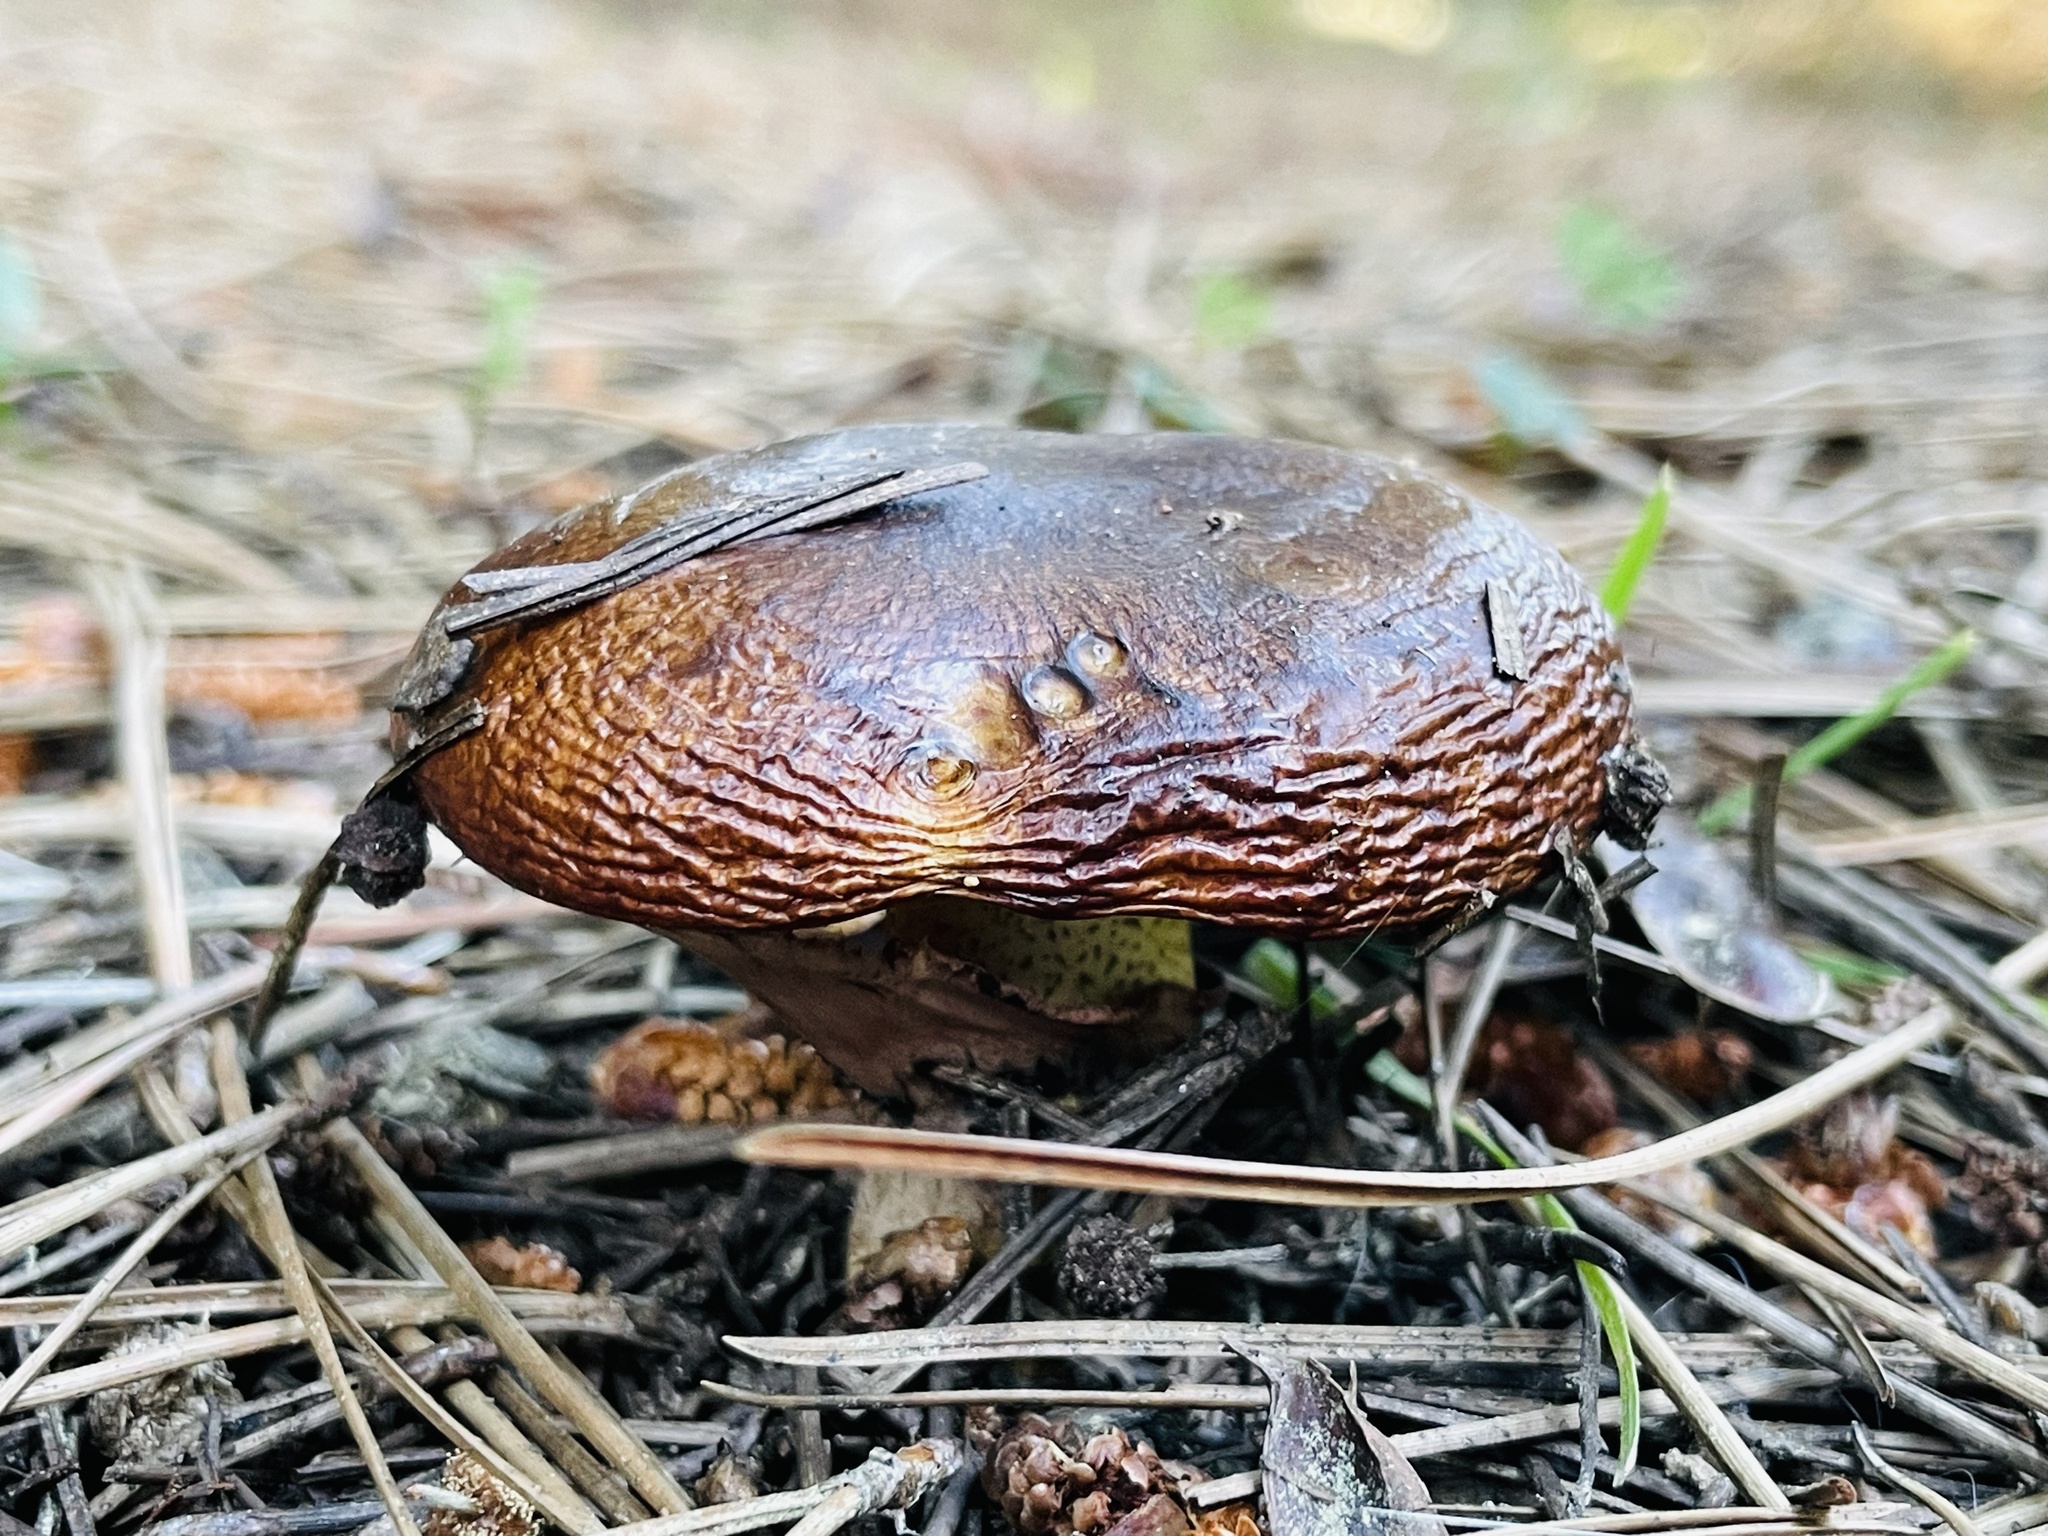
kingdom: Fungi
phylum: Basidiomycota
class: Agaricomycetes
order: Boletales
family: Suillaceae
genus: Suillus
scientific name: Suillus luteus
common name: Slippery jack
